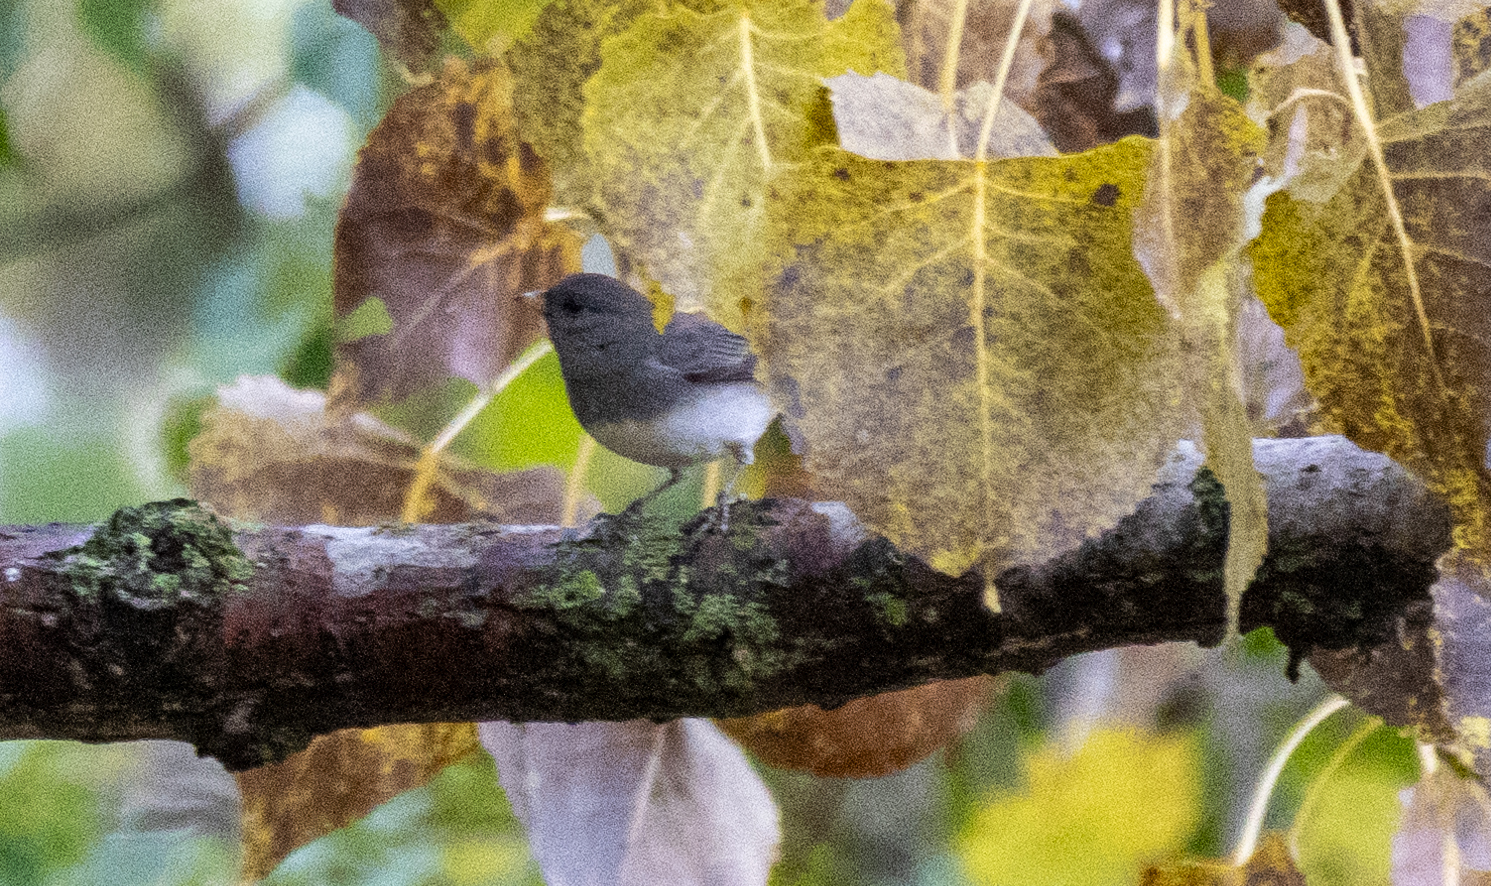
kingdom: Animalia
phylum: Chordata
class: Aves
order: Passeriformes
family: Passerellidae
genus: Junco
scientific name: Junco hyemalis
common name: Dark-eyed junco
